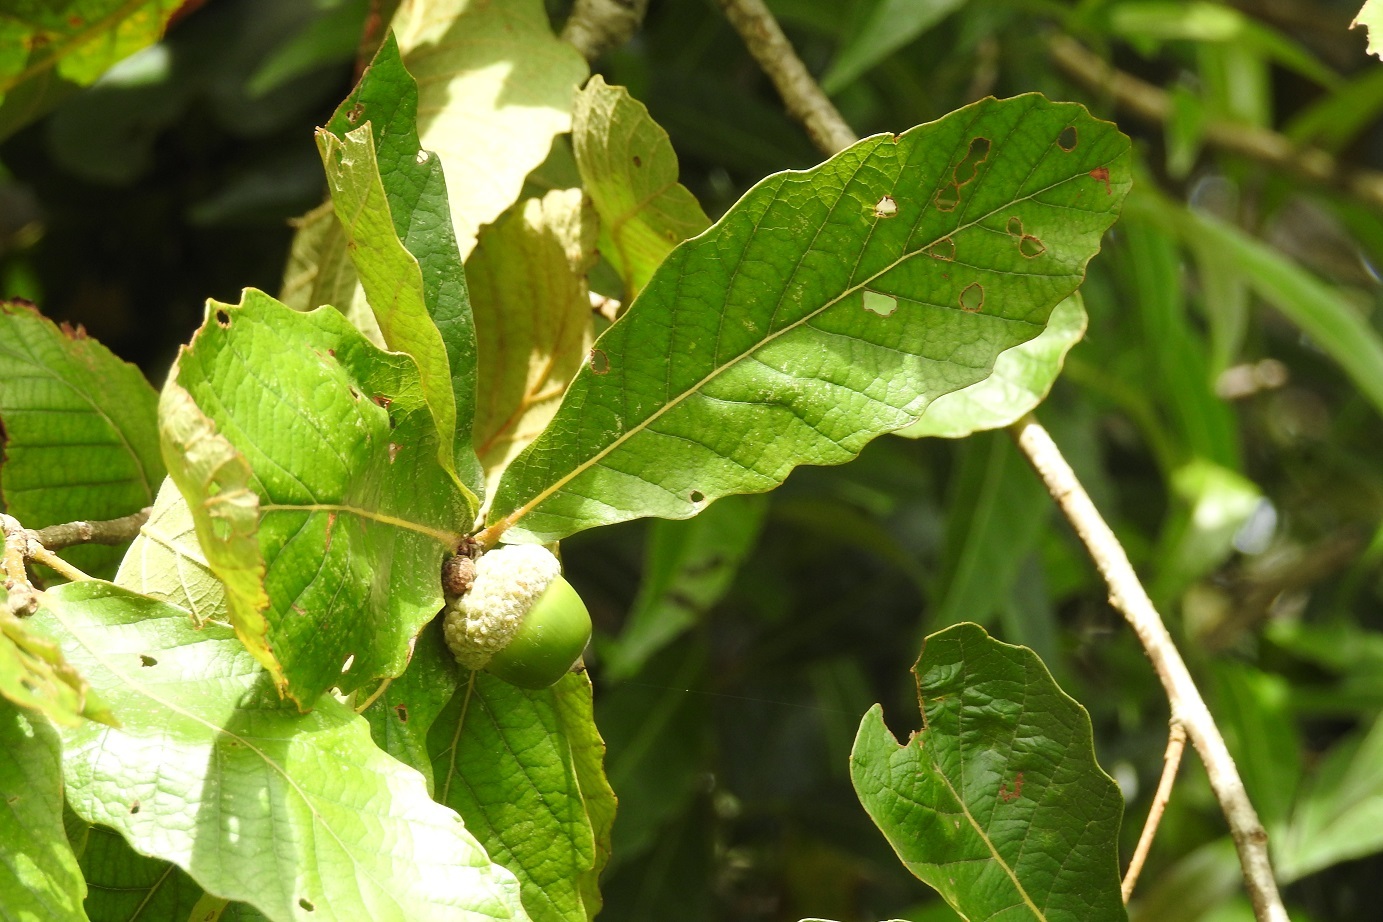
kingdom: Plantae
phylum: Tracheophyta
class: Magnoliopsida
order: Fagales
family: Fagaceae
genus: Quercus
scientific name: Quercus purulhana
